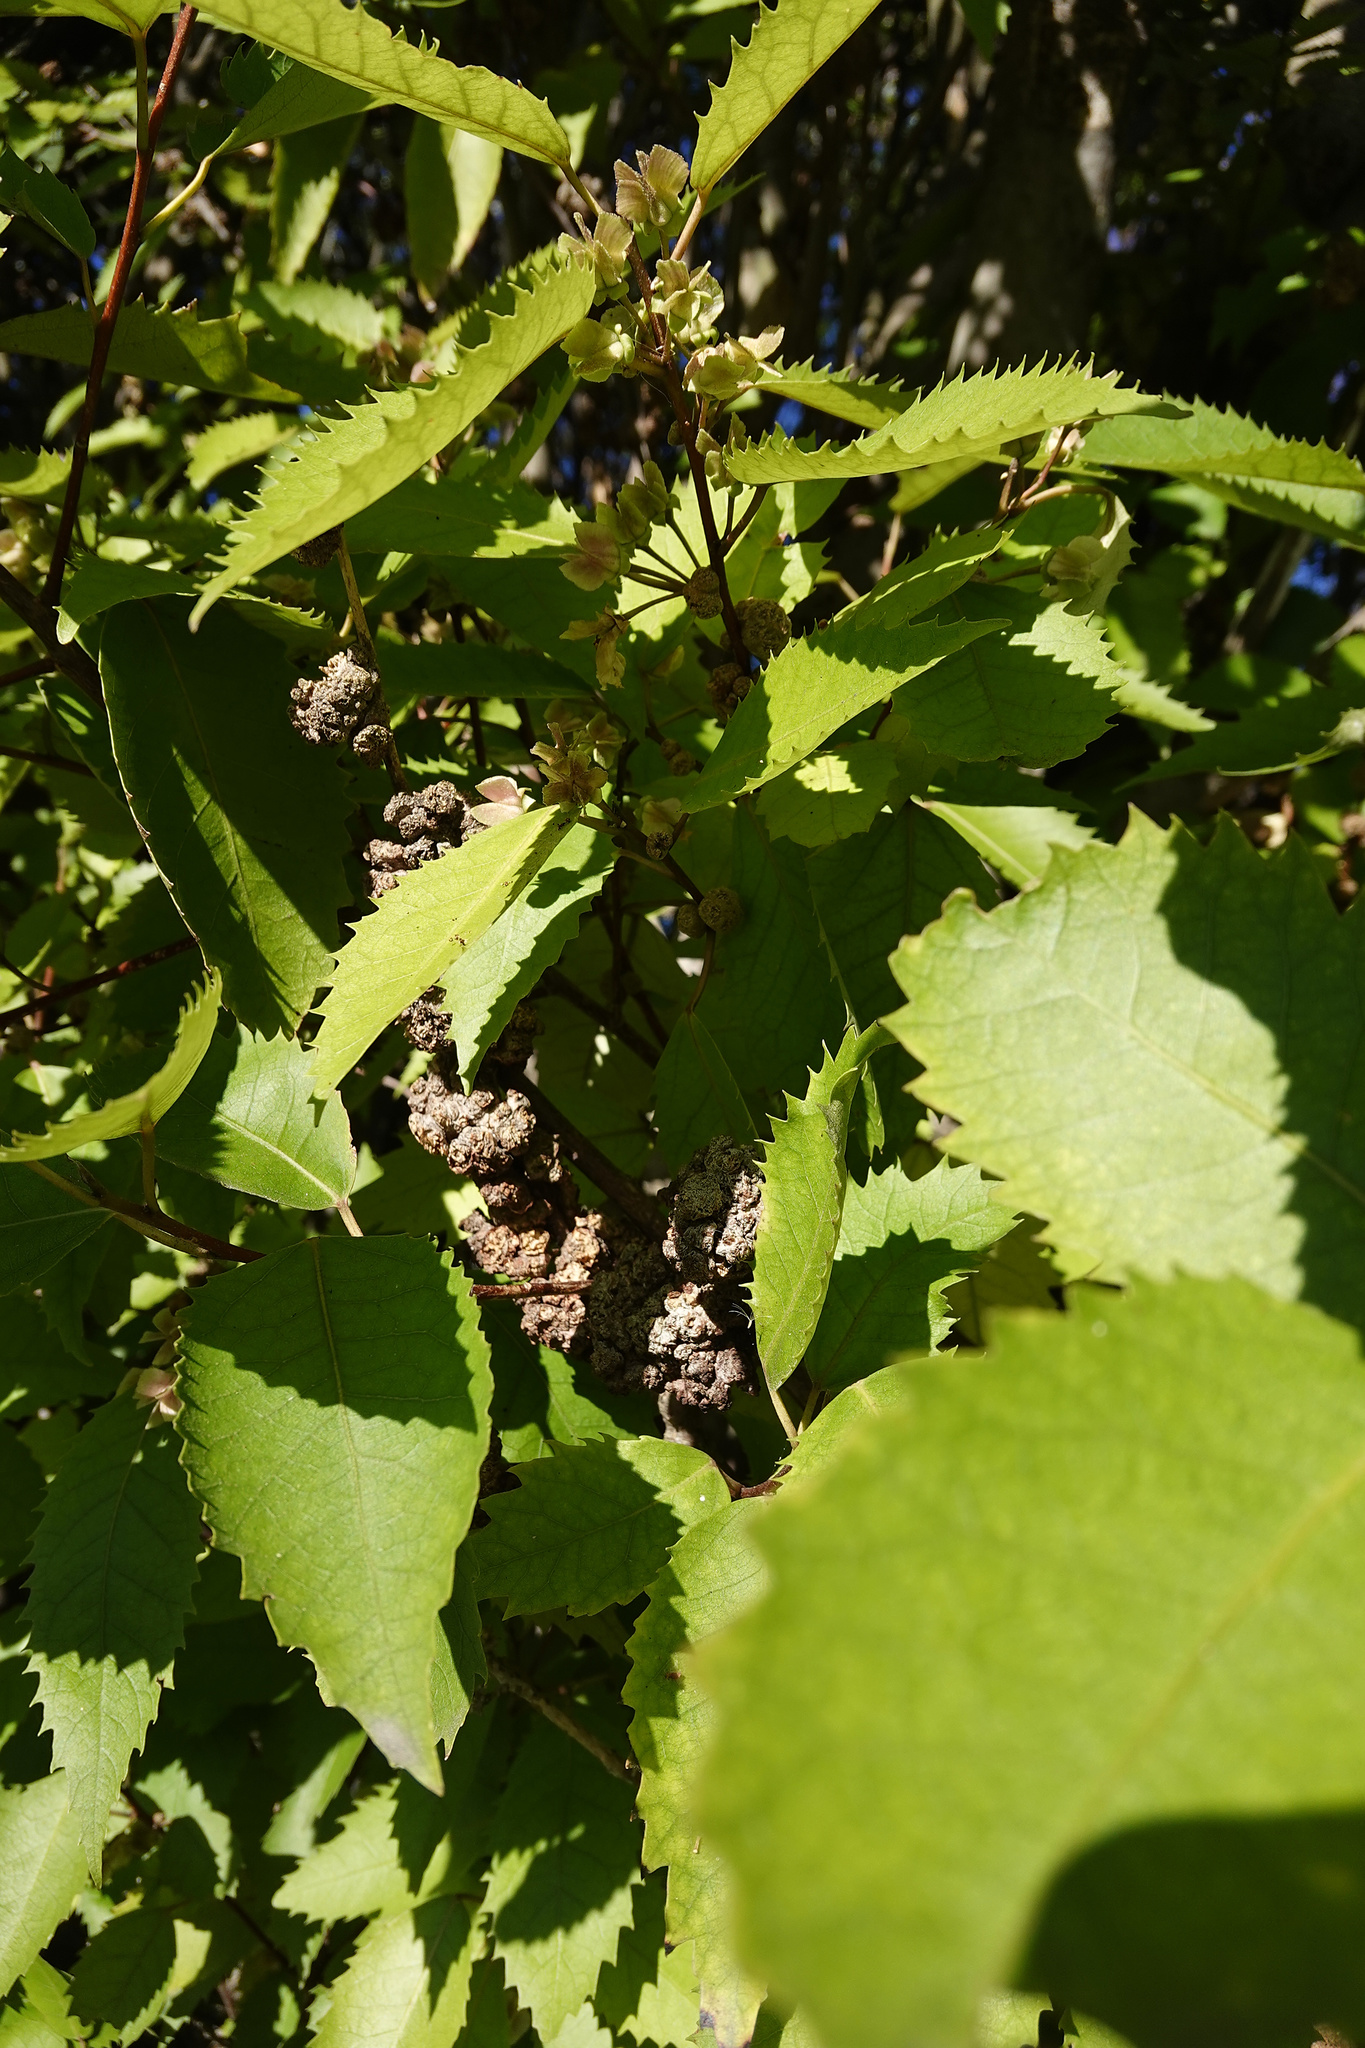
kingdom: Animalia
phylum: Arthropoda
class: Arachnida
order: Trombidiformes
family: Eriophyidae
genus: Eriophyes
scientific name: Eriophyes hoheriae
